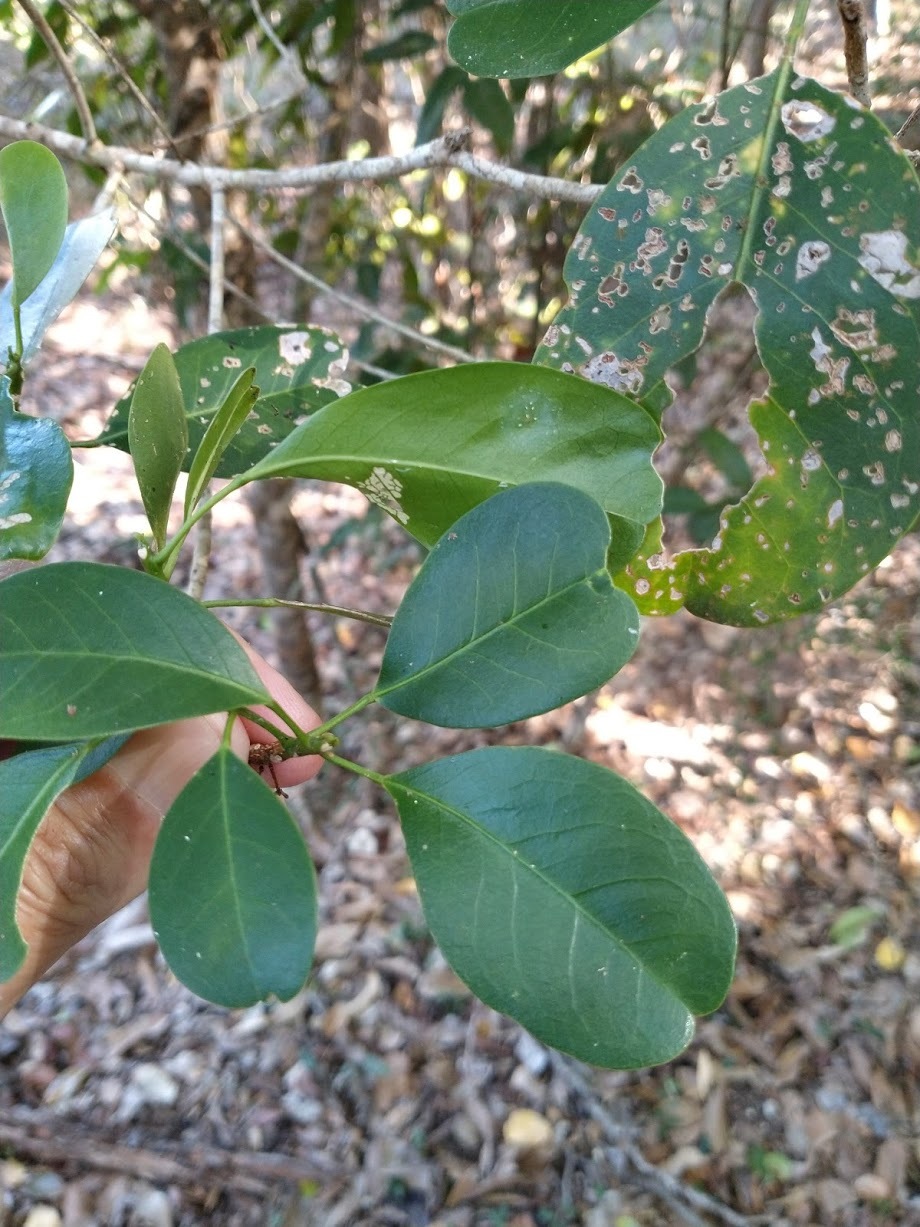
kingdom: Plantae
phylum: Tracheophyta
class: Magnoliopsida
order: Sapindales
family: Rutaceae
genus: Acronychia
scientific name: Acronychia laevis
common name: Hard aspen
